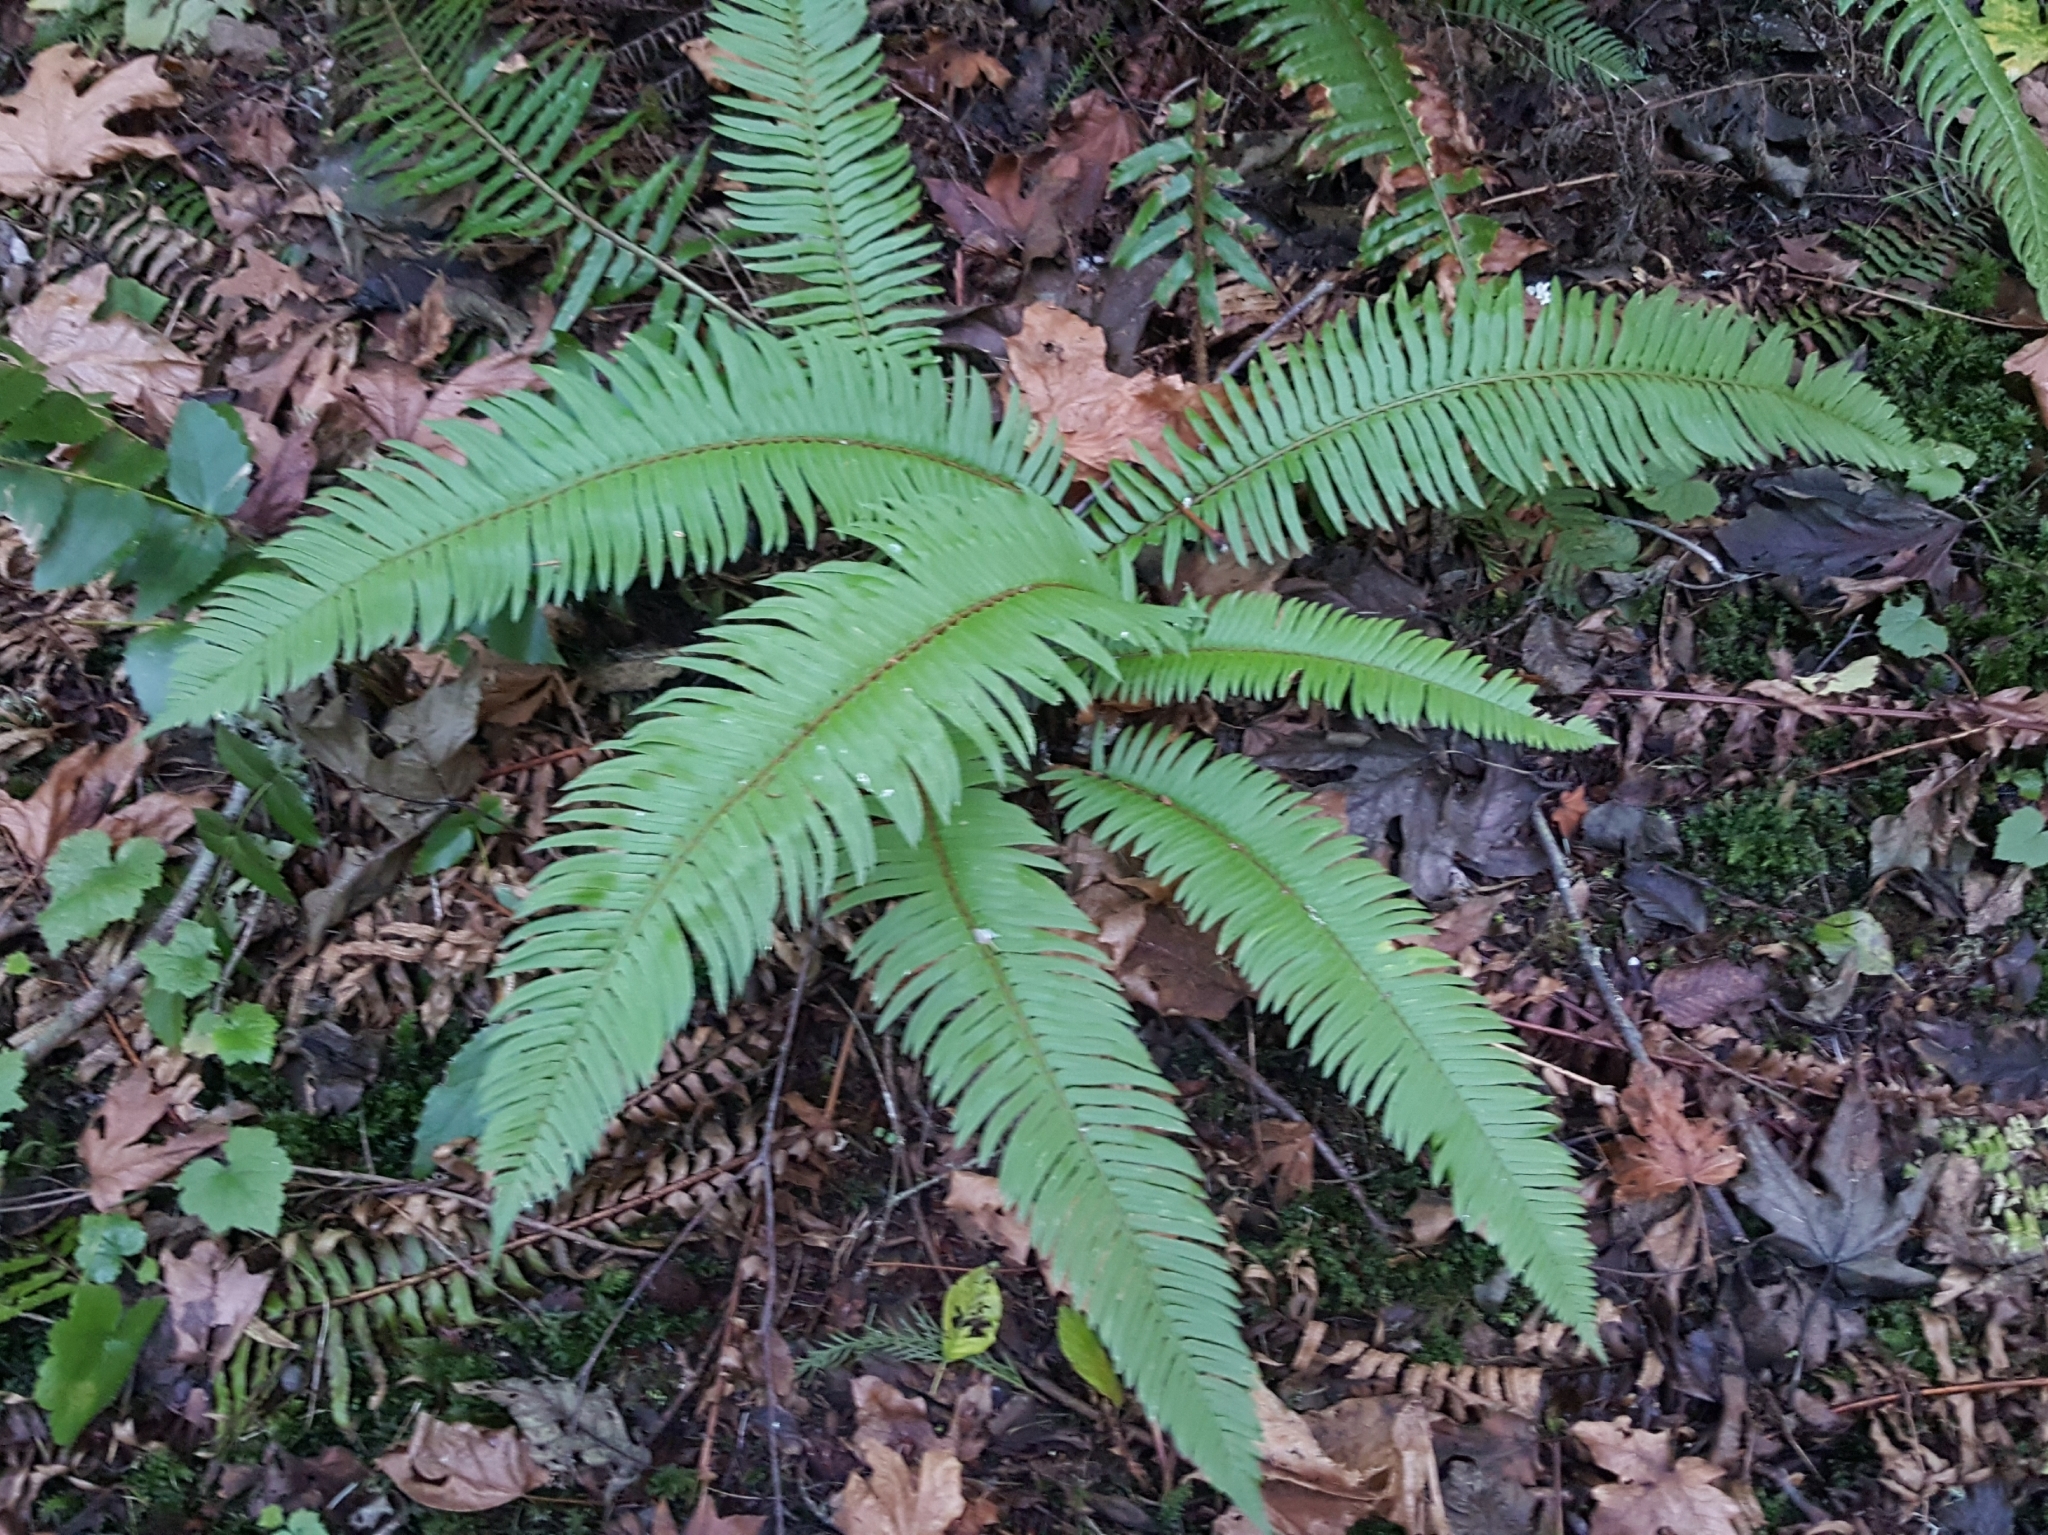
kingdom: Plantae
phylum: Tracheophyta
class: Polypodiopsida
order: Polypodiales
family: Dryopteridaceae
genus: Polystichum
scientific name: Polystichum munitum
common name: Western sword-fern
